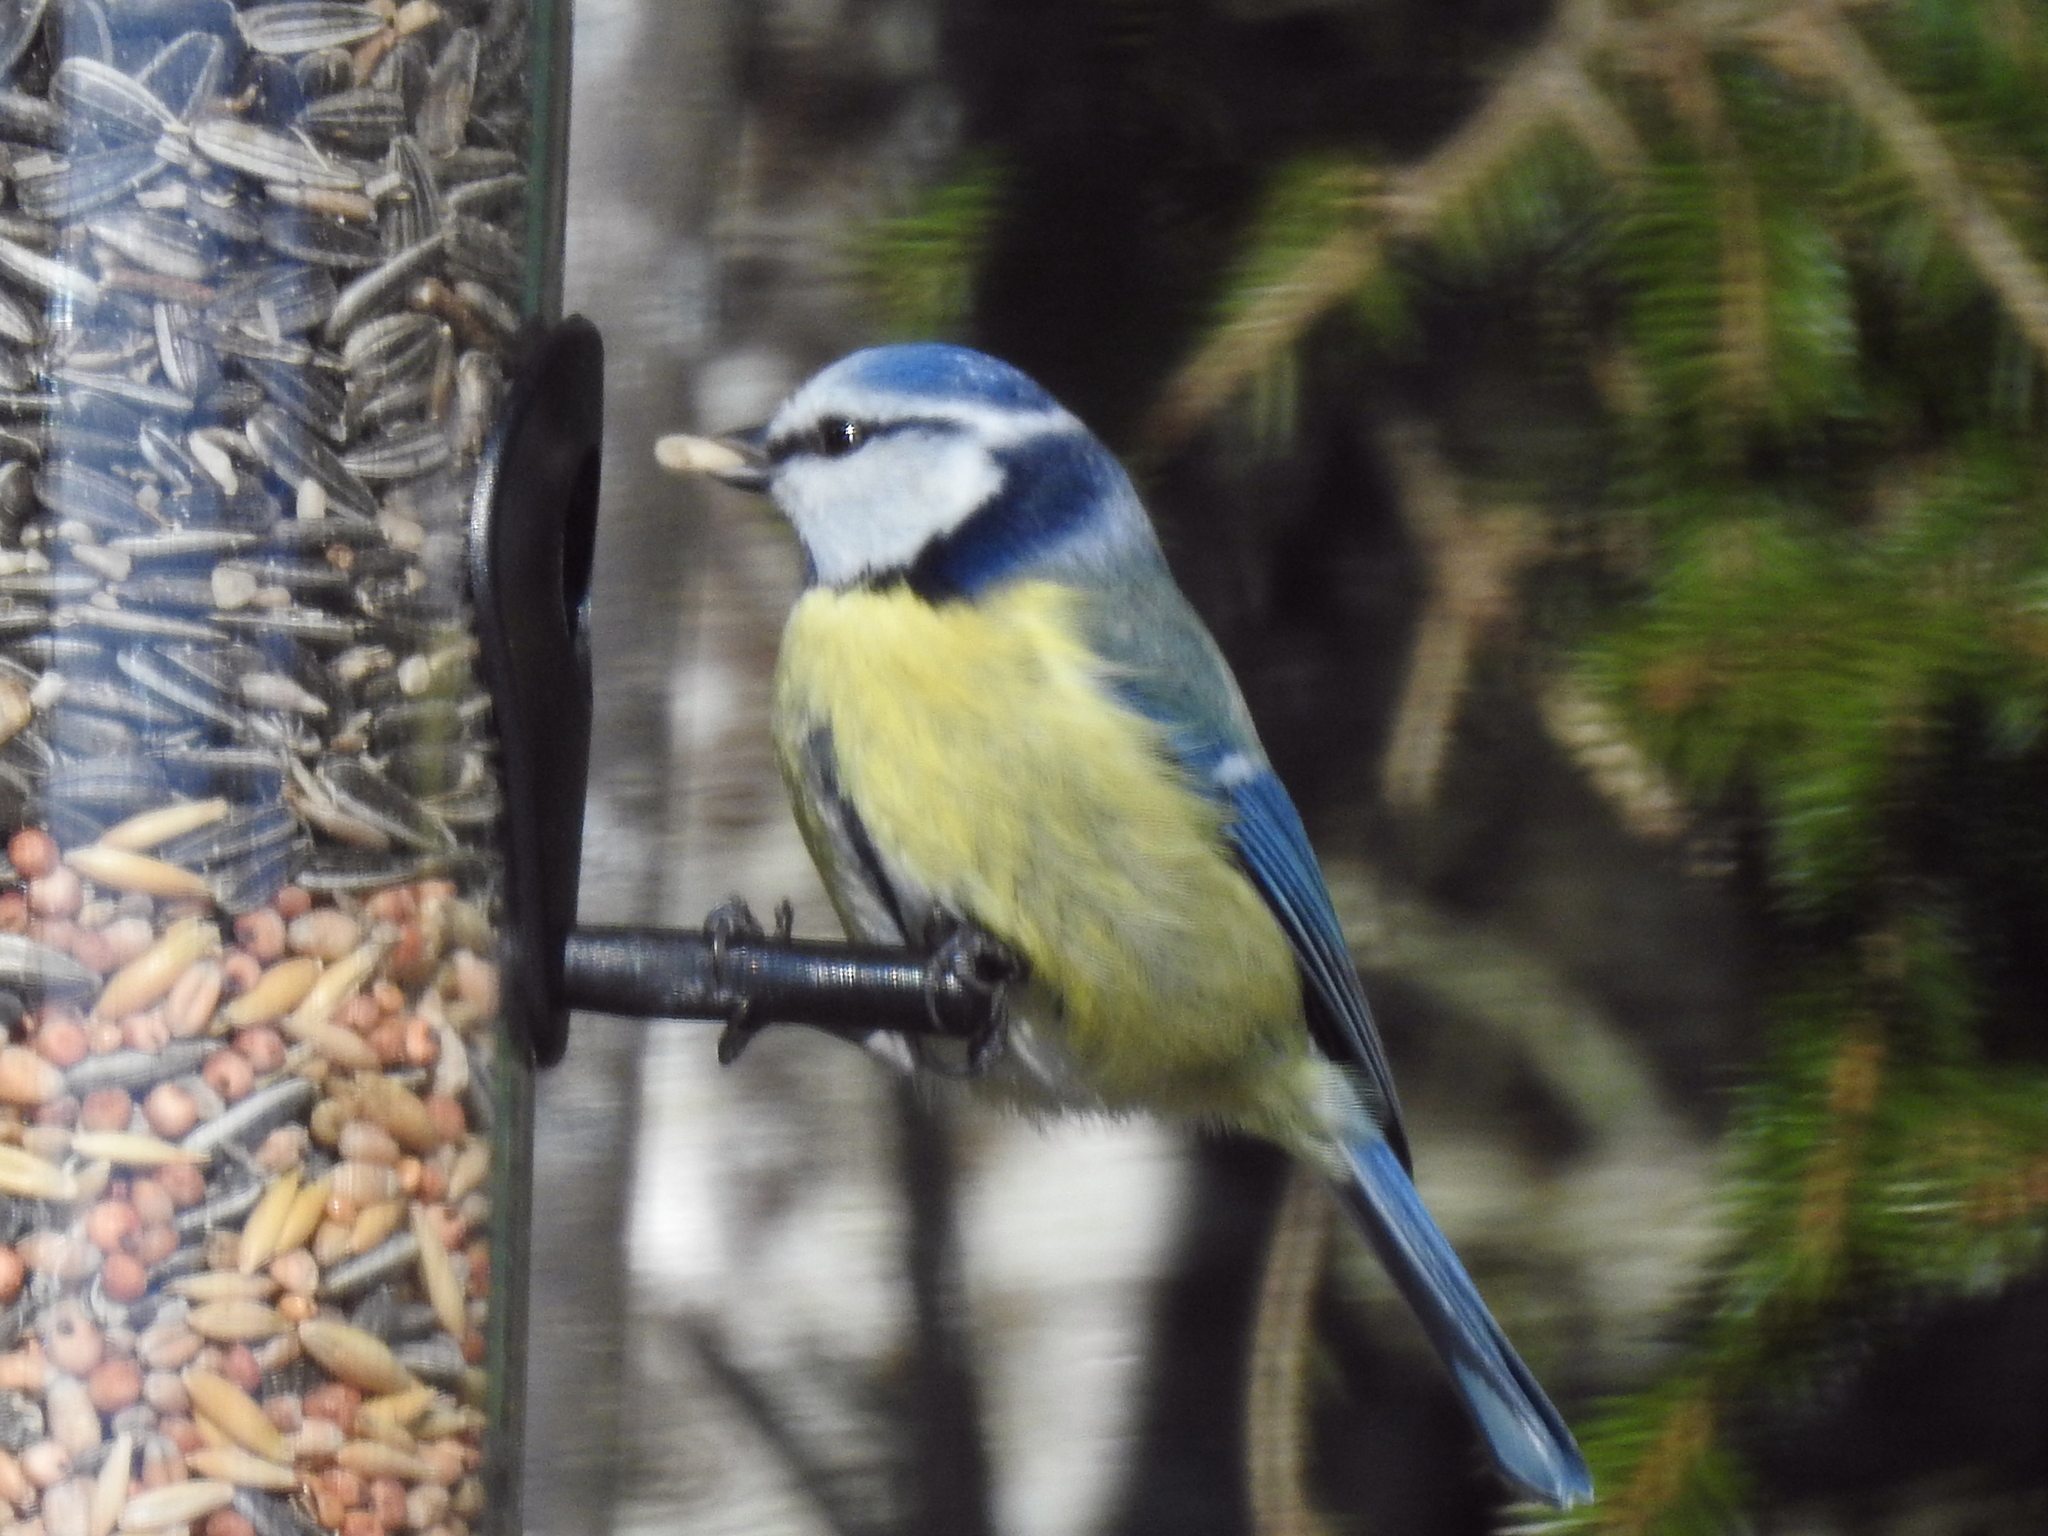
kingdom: Animalia
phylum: Chordata
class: Aves
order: Passeriformes
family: Paridae
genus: Cyanistes
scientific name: Cyanistes caeruleus
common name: Eurasian blue tit
